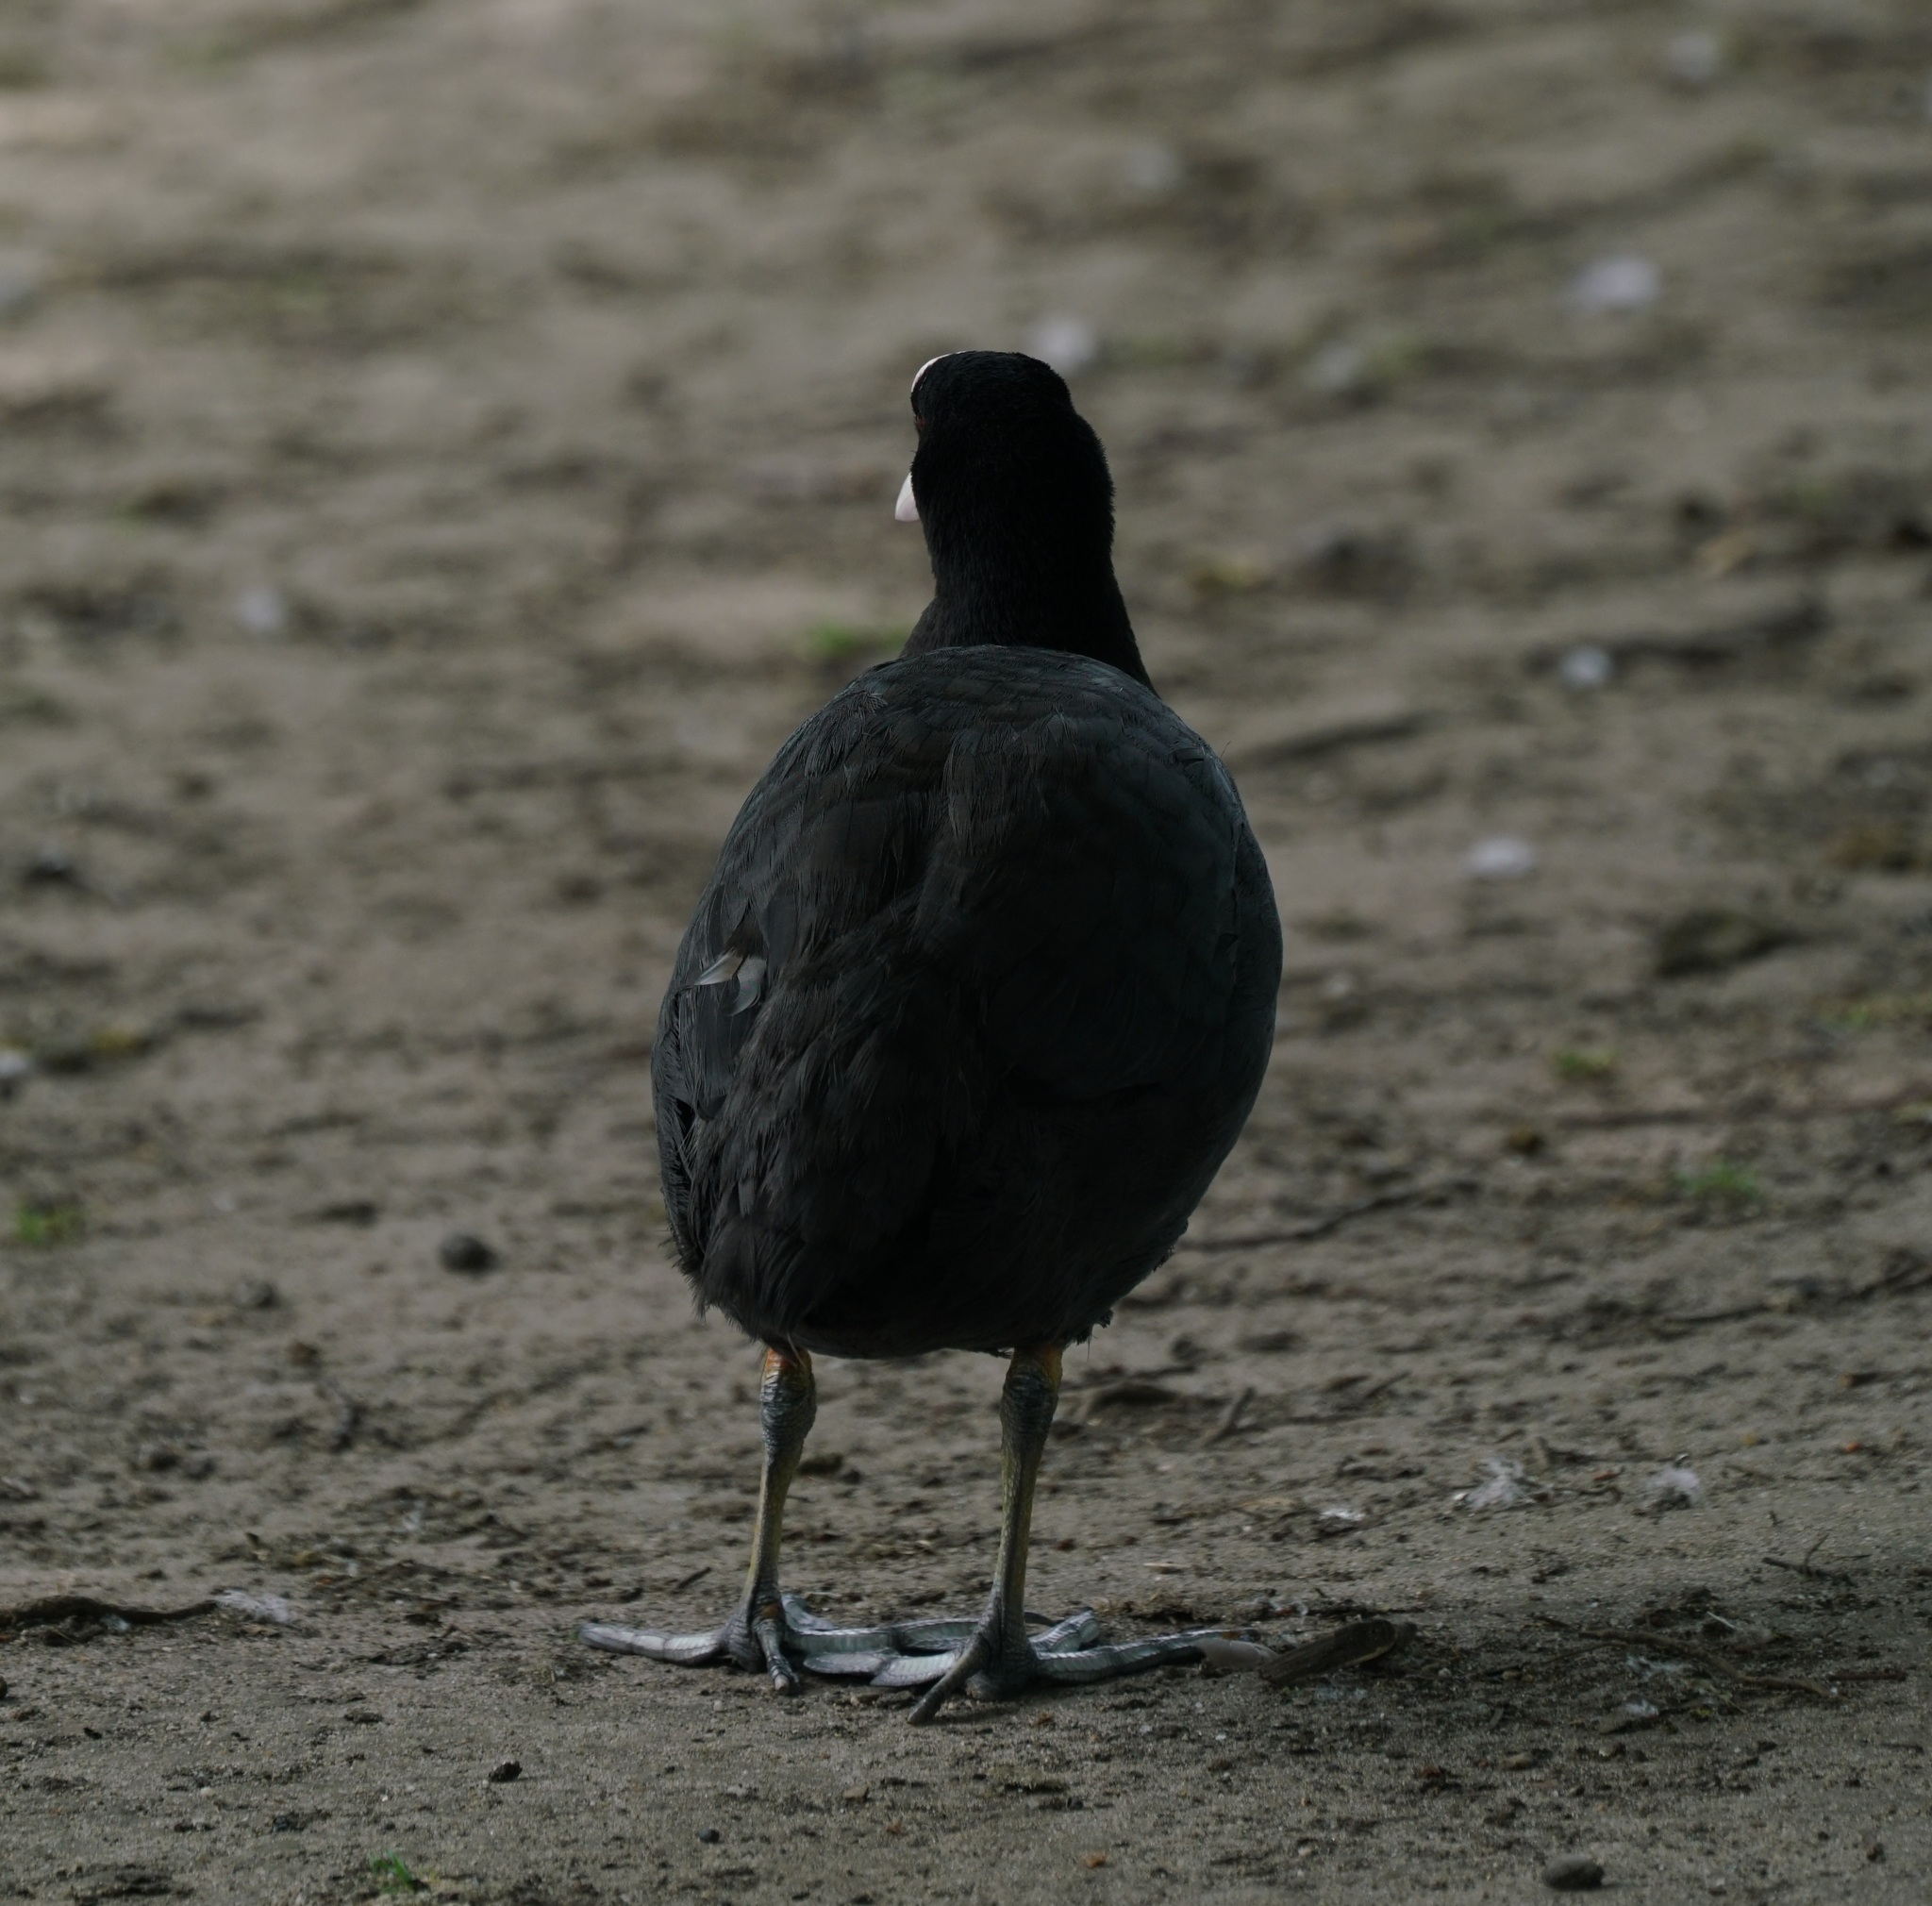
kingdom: Animalia
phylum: Chordata
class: Aves
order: Gruiformes
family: Rallidae
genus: Fulica
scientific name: Fulica atra
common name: Eurasian coot
